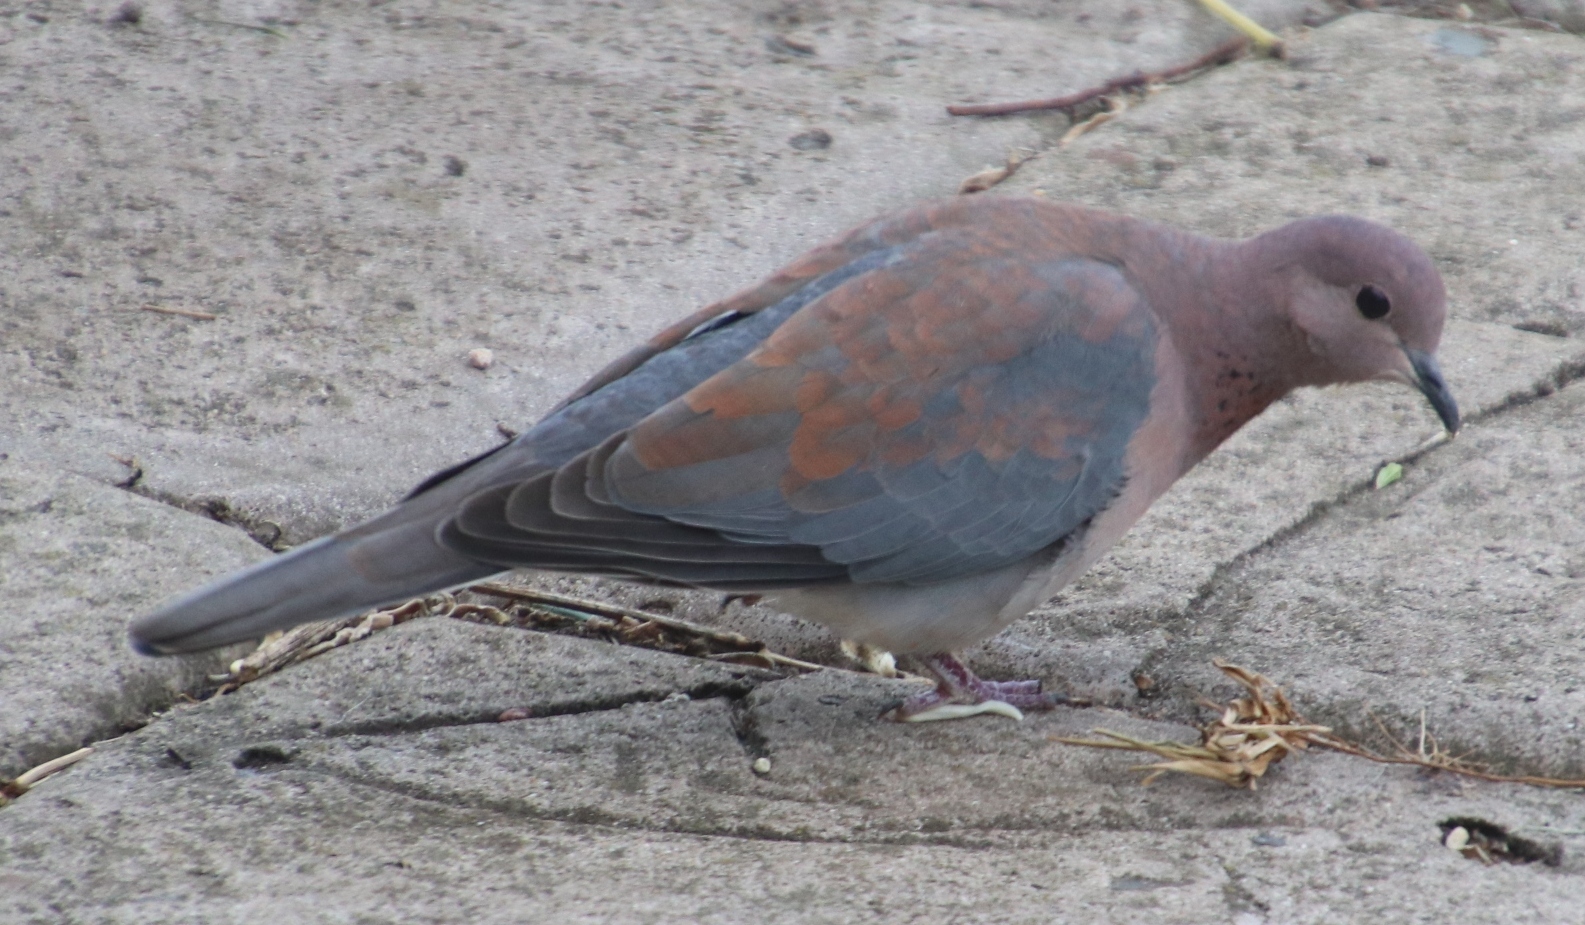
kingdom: Animalia
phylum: Chordata
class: Aves
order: Columbiformes
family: Columbidae
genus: Spilopelia
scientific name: Spilopelia senegalensis
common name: Laughing dove
